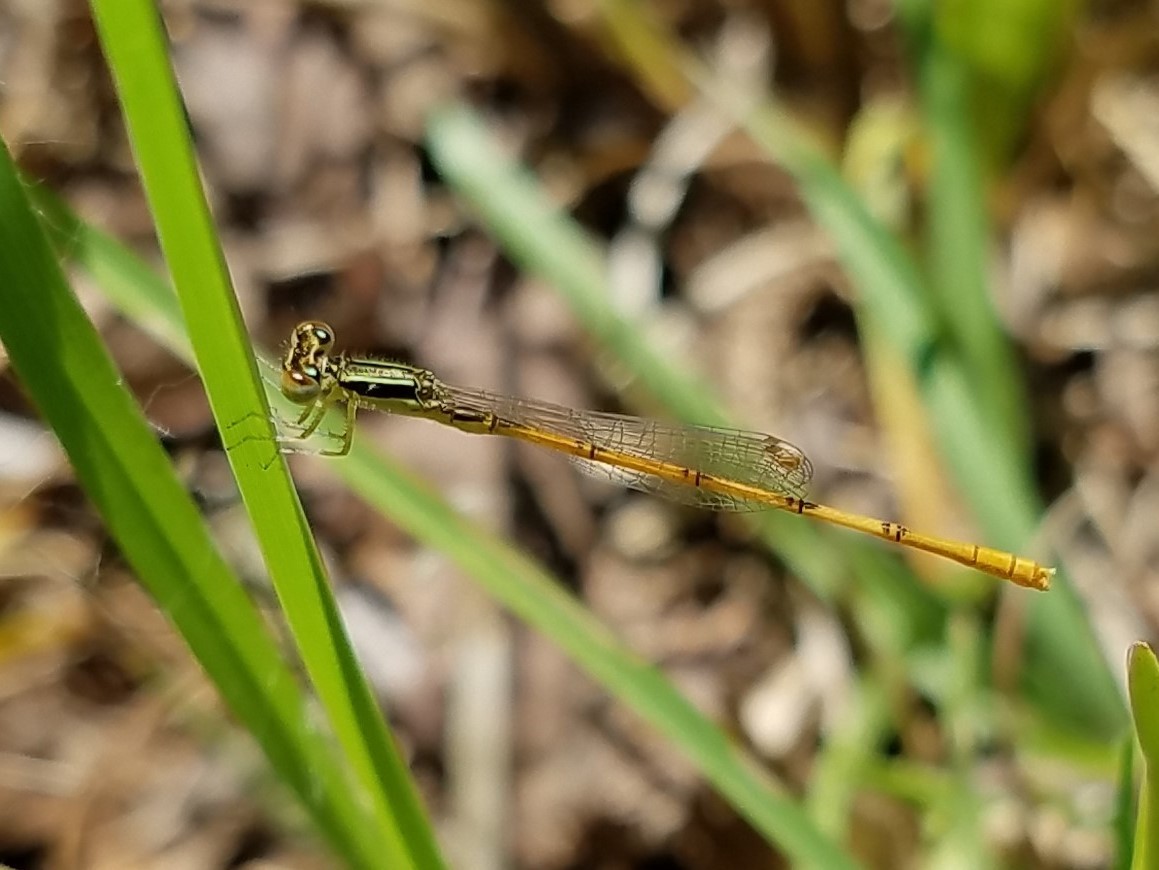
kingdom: Animalia
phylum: Arthropoda
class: Insecta
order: Odonata
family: Coenagrionidae
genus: Ischnura
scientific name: Ischnura hastata
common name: Citrine forktail
